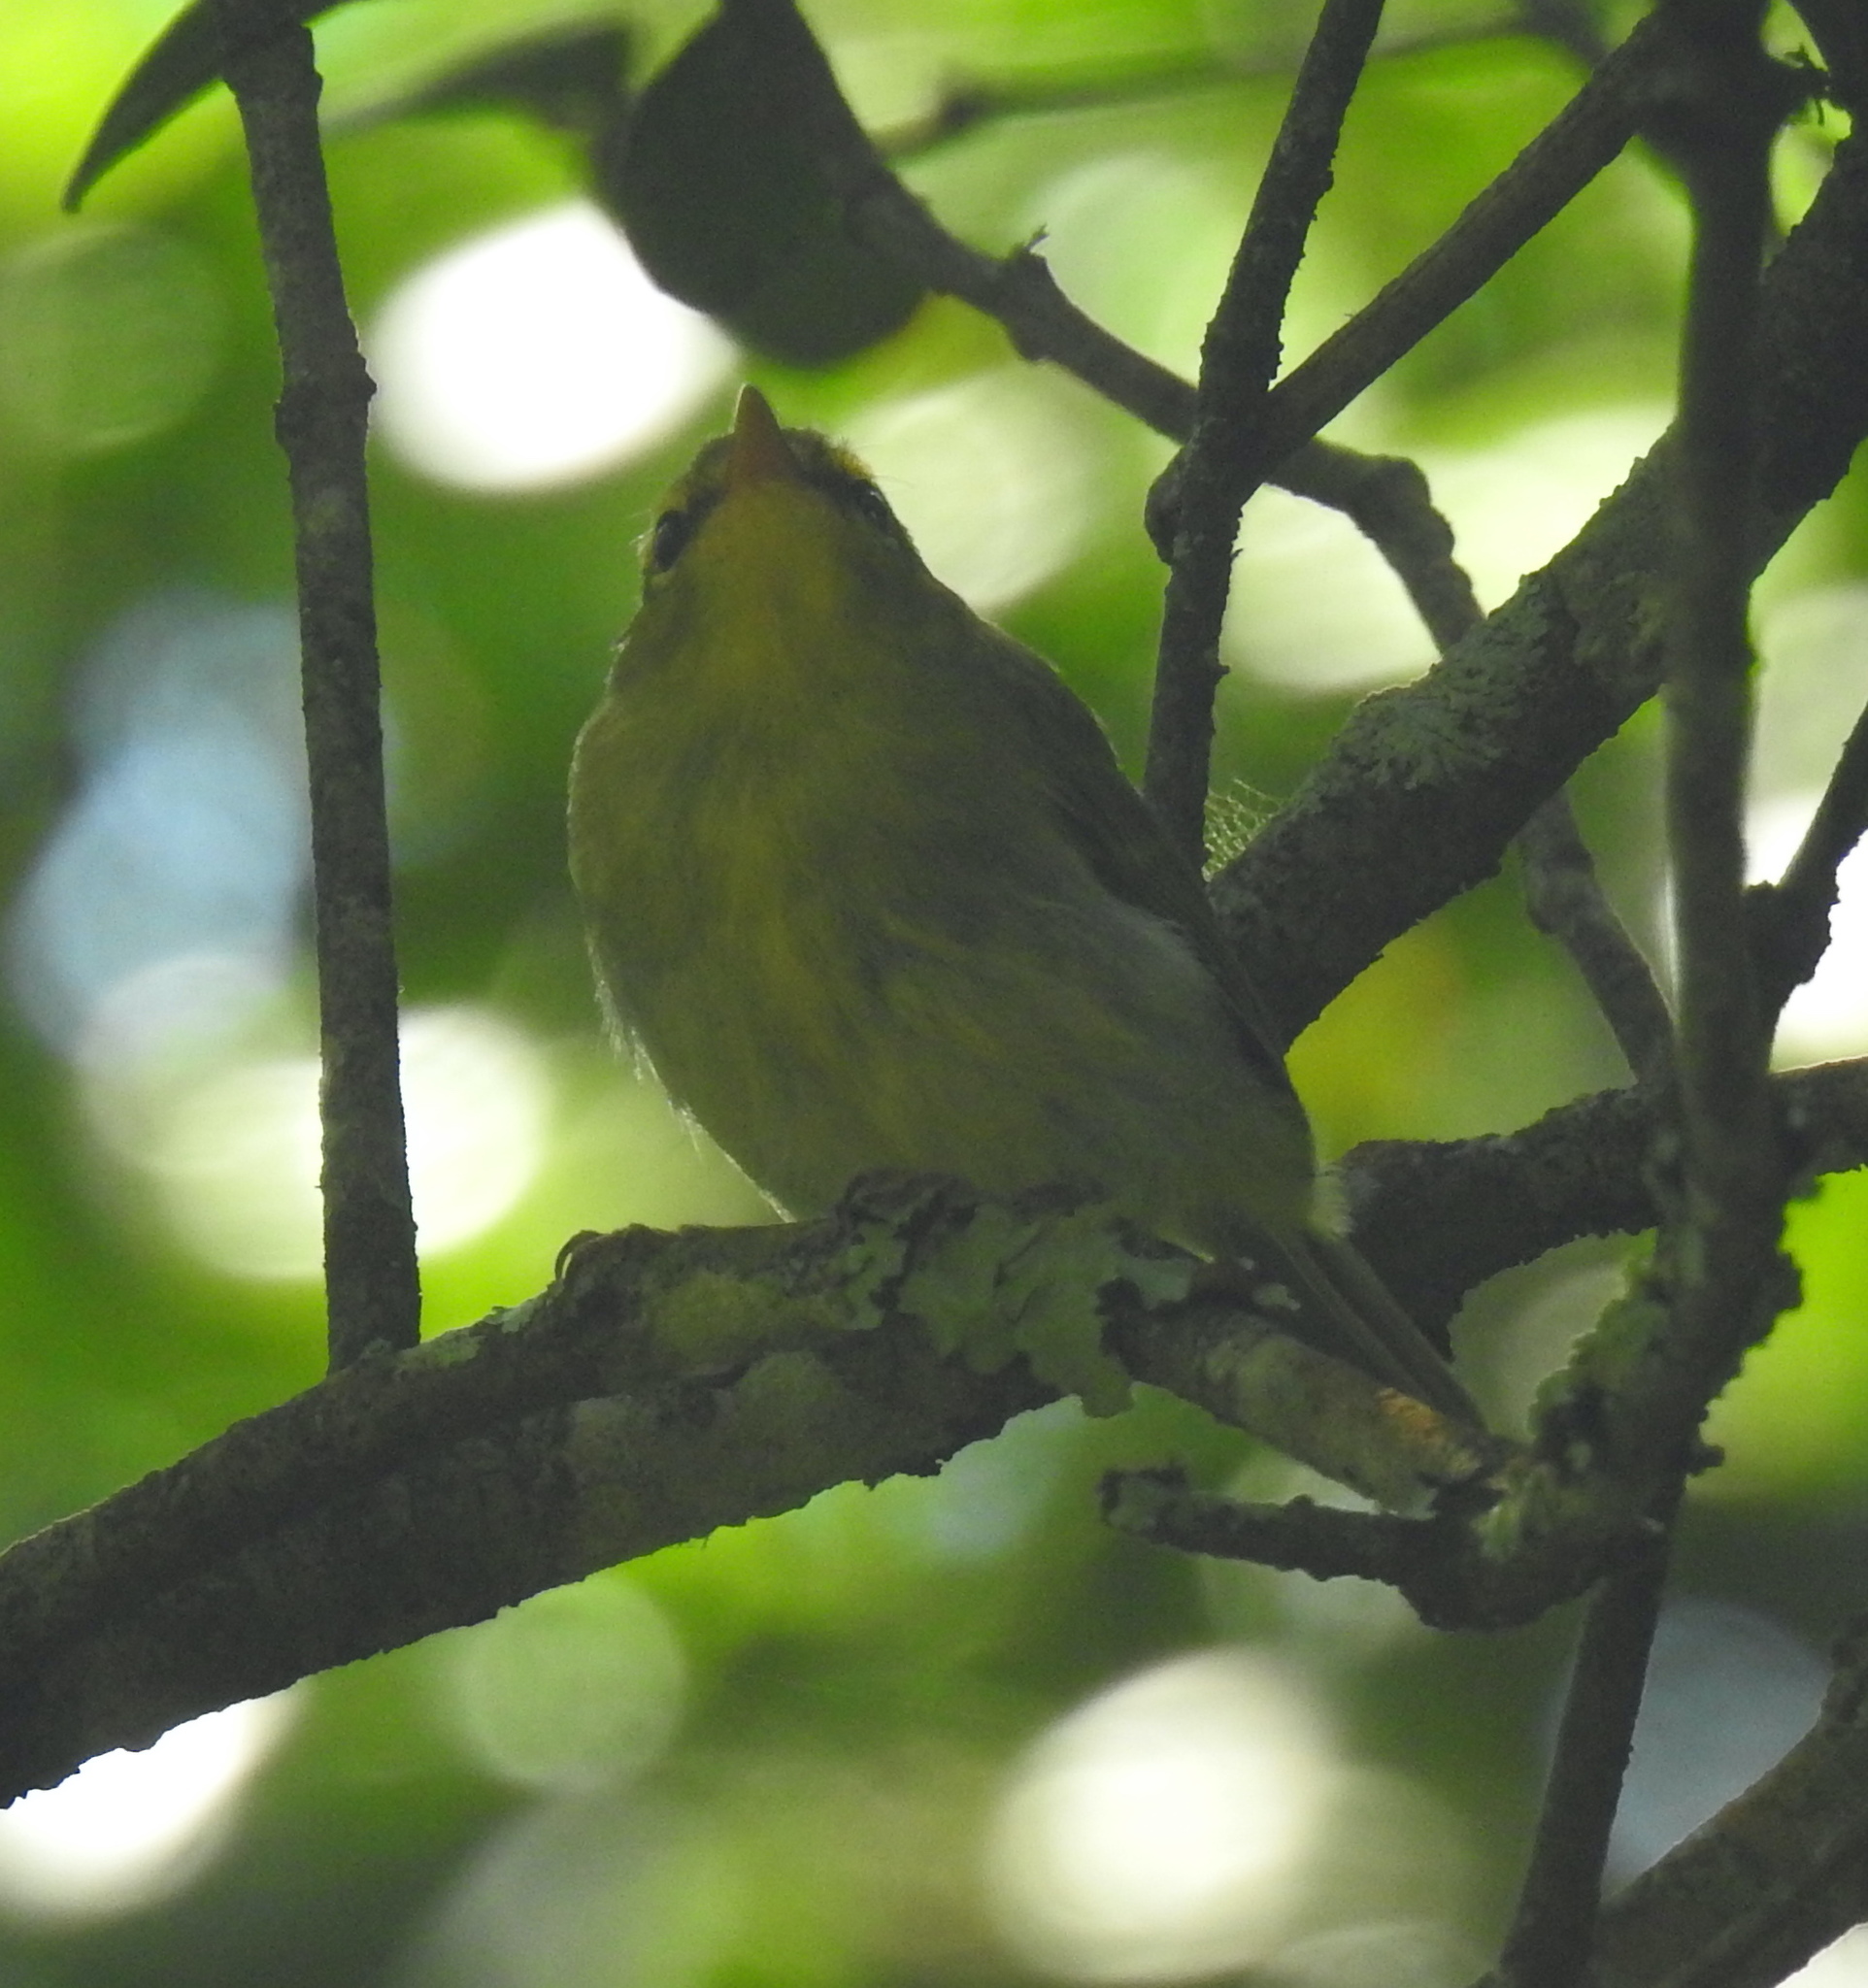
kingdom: Animalia
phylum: Chordata
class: Aves
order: Passeriformes
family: Phylloscopidae
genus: Phylloscopus
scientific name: Phylloscopus ruficapilla
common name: Yellow-throated woodland warbler
